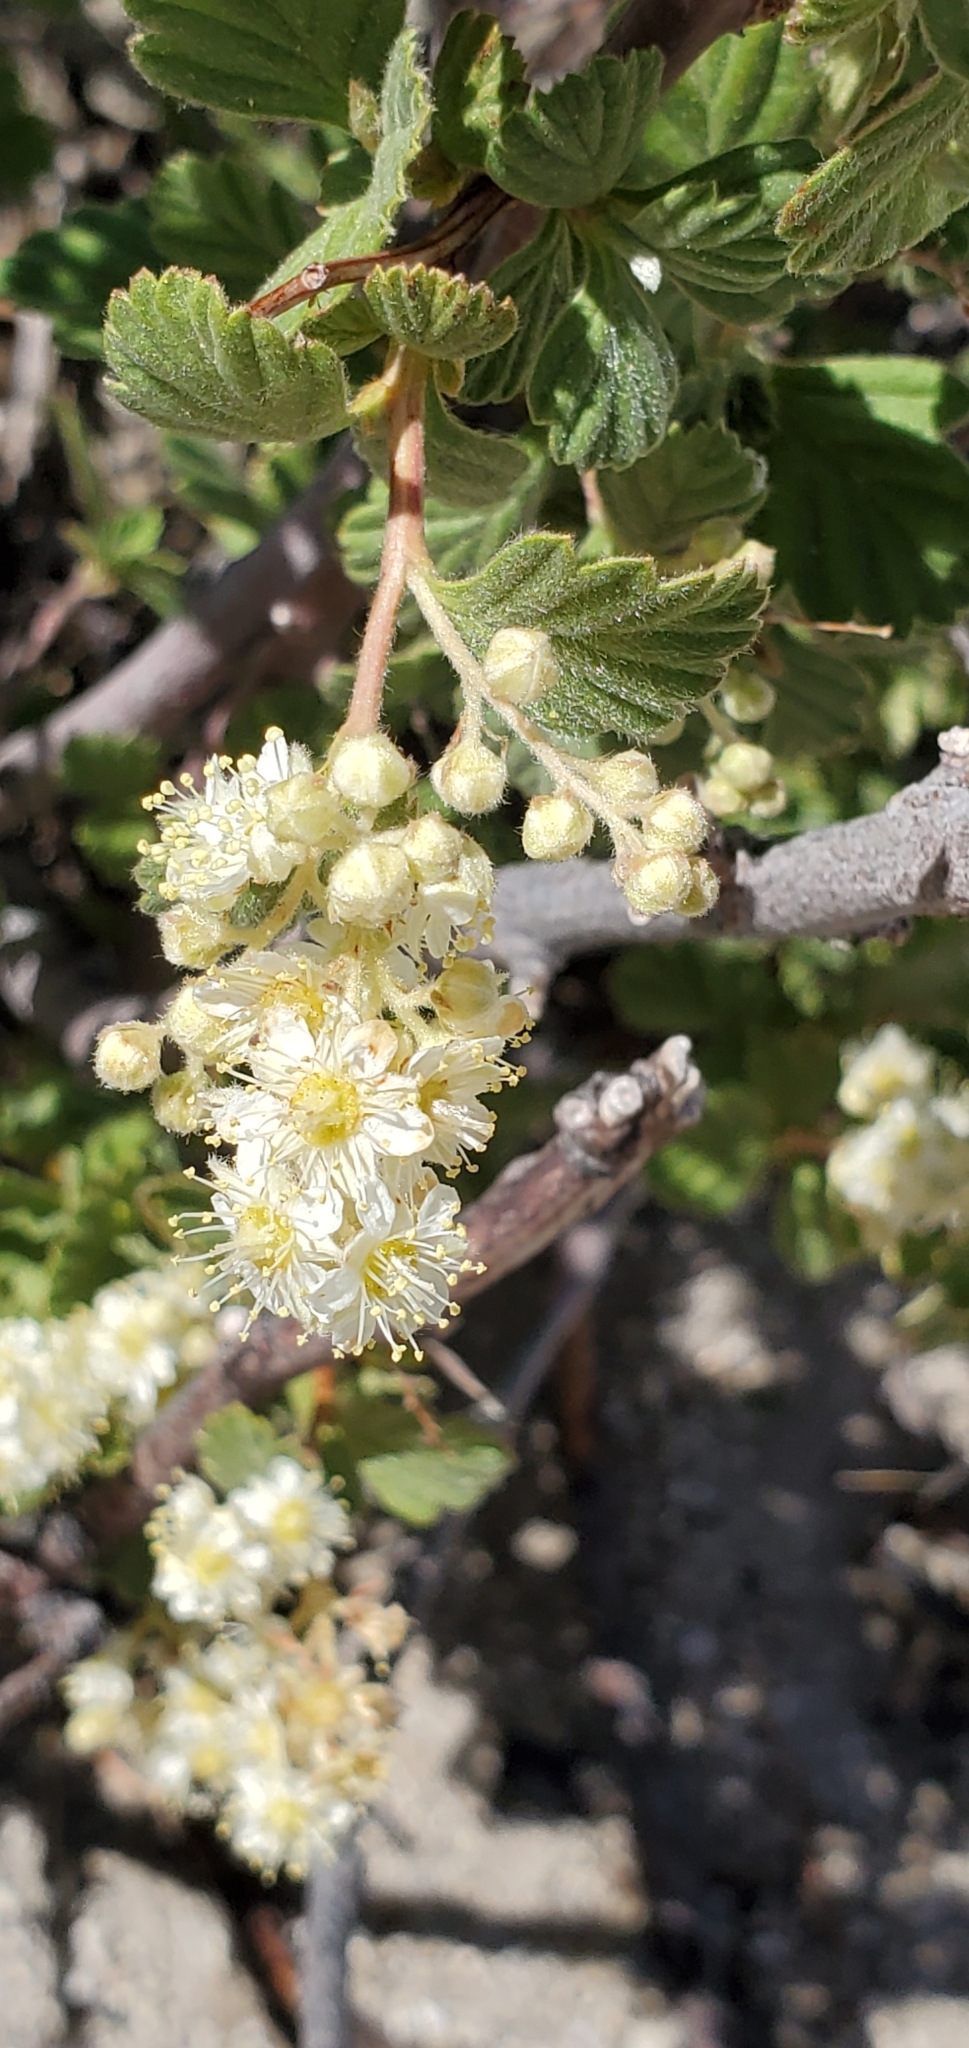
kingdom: Plantae
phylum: Tracheophyta
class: Magnoliopsida
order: Rosales
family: Rosaceae
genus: Holodiscus
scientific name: Holodiscus discolor
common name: Oceanspray
